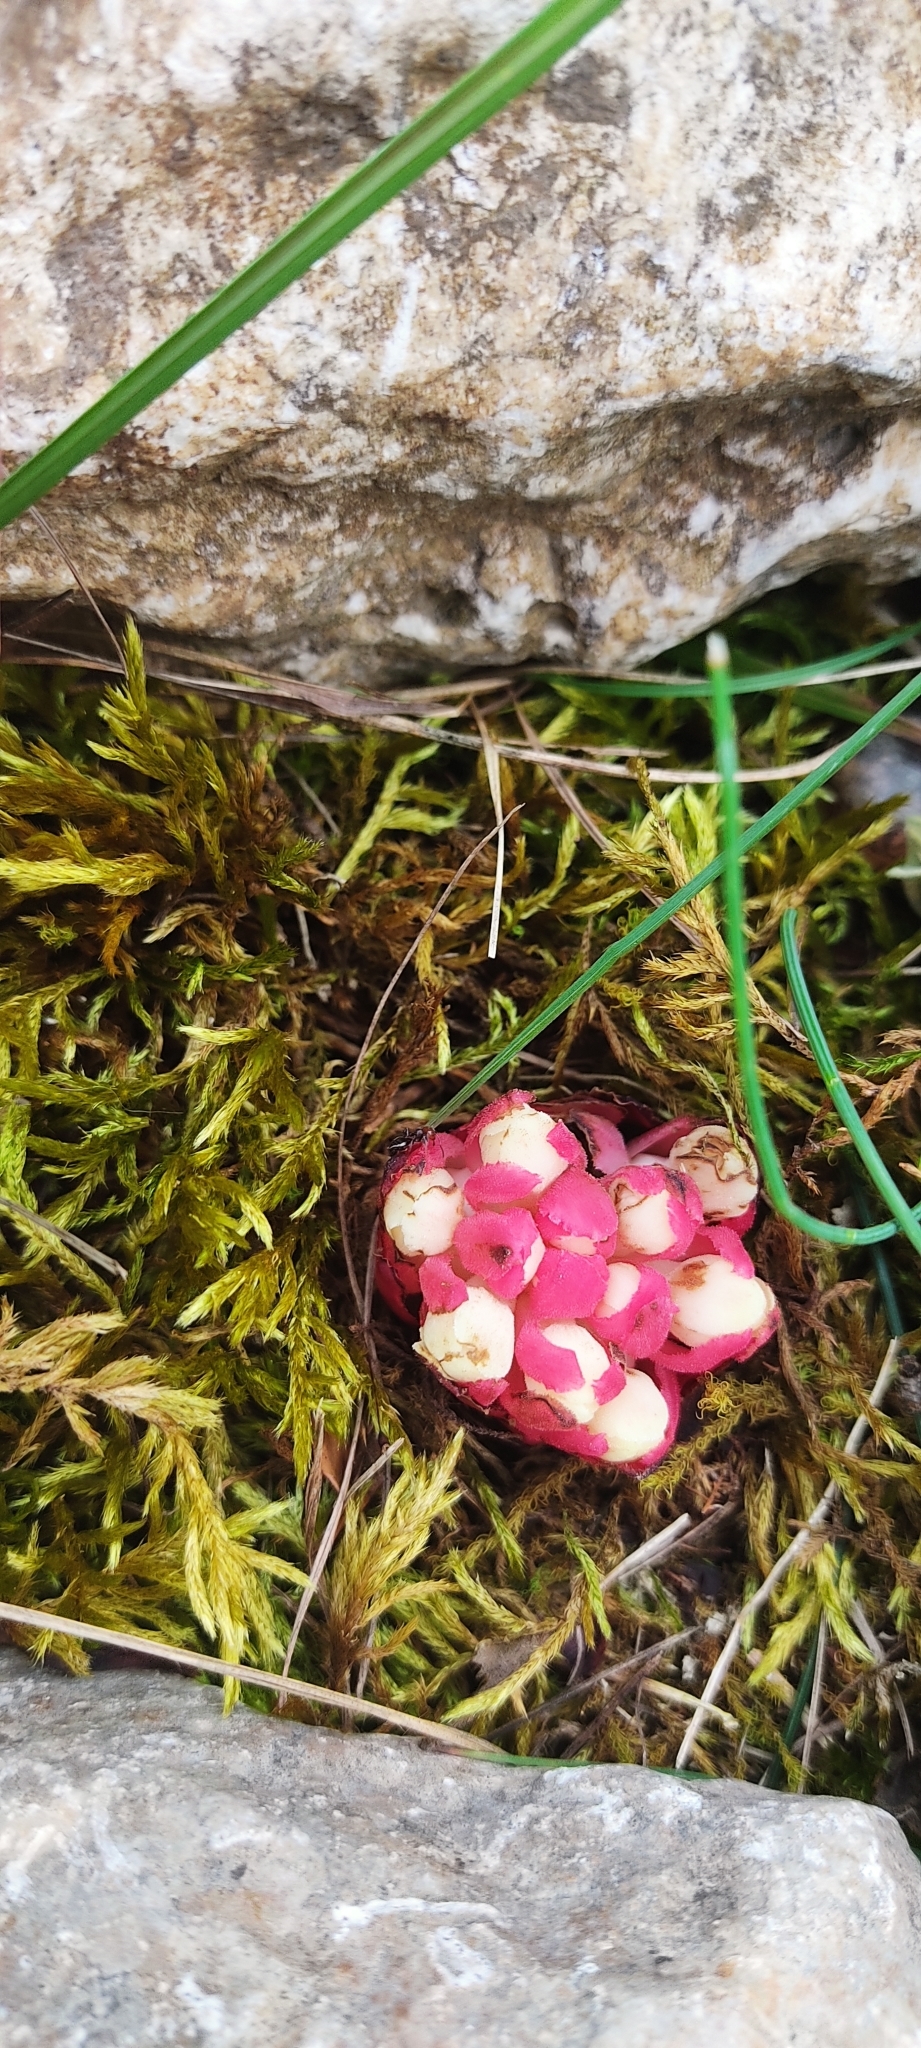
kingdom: Plantae
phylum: Tracheophyta
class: Magnoliopsida
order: Malvales
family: Cytinaceae
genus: Cytinus
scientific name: Cytinus ruber
